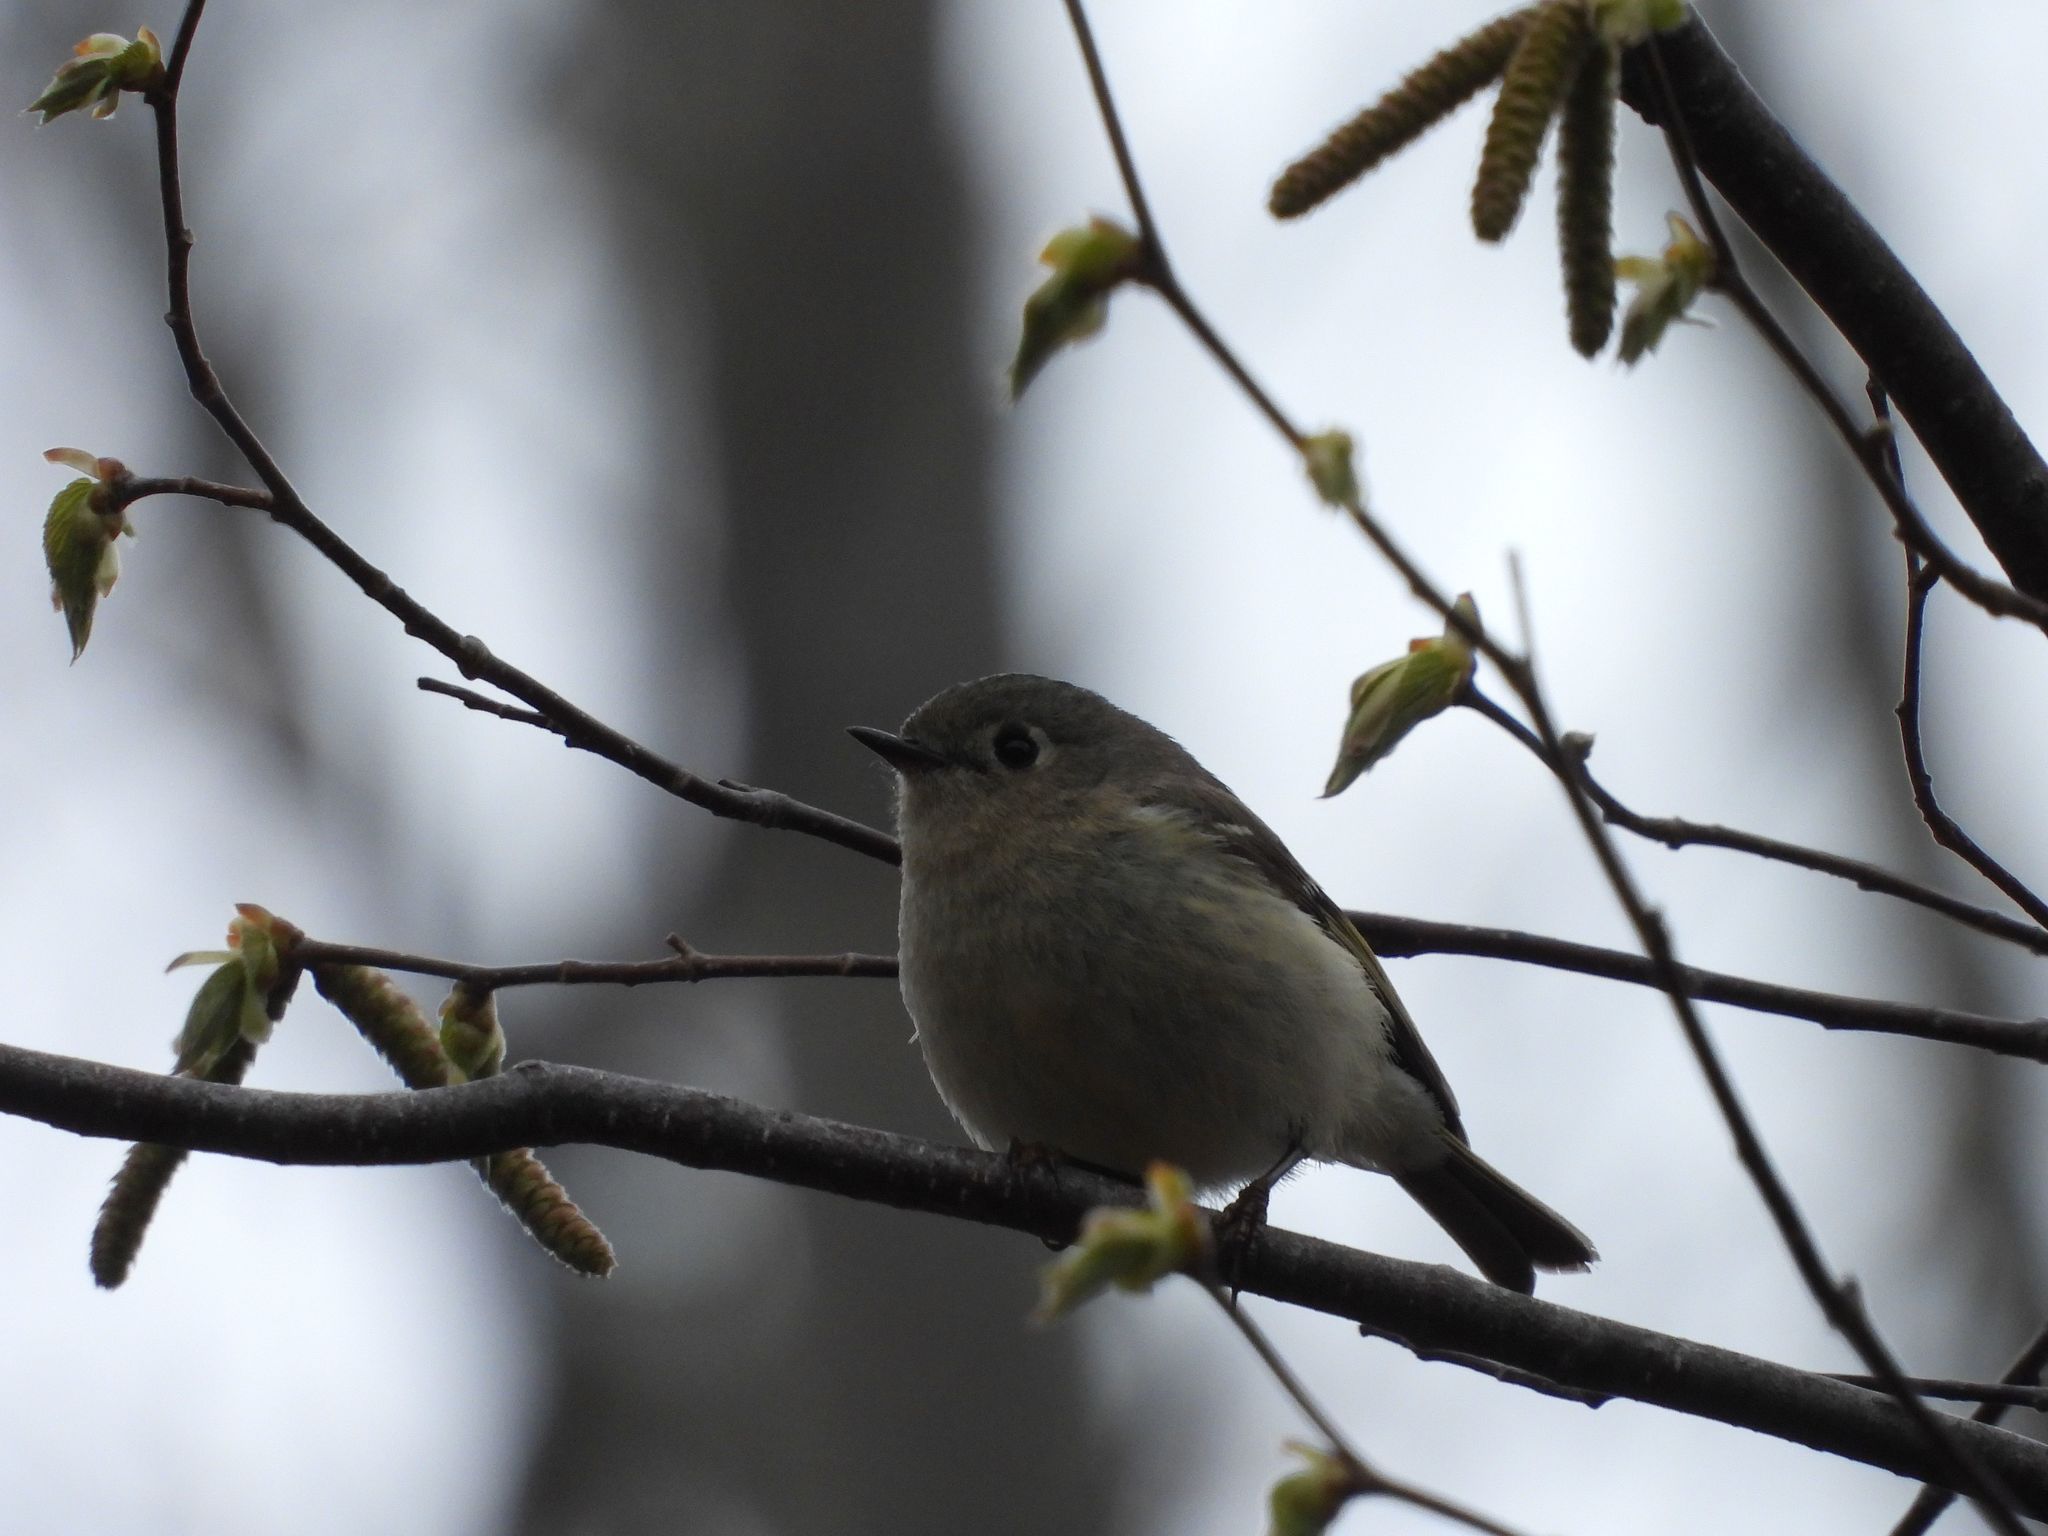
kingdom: Animalia
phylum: Chordata
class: Aves
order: Passeriformes
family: Regulidae
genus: Regulus
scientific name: Regulus calendula
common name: Ruby-crowned kinglet
